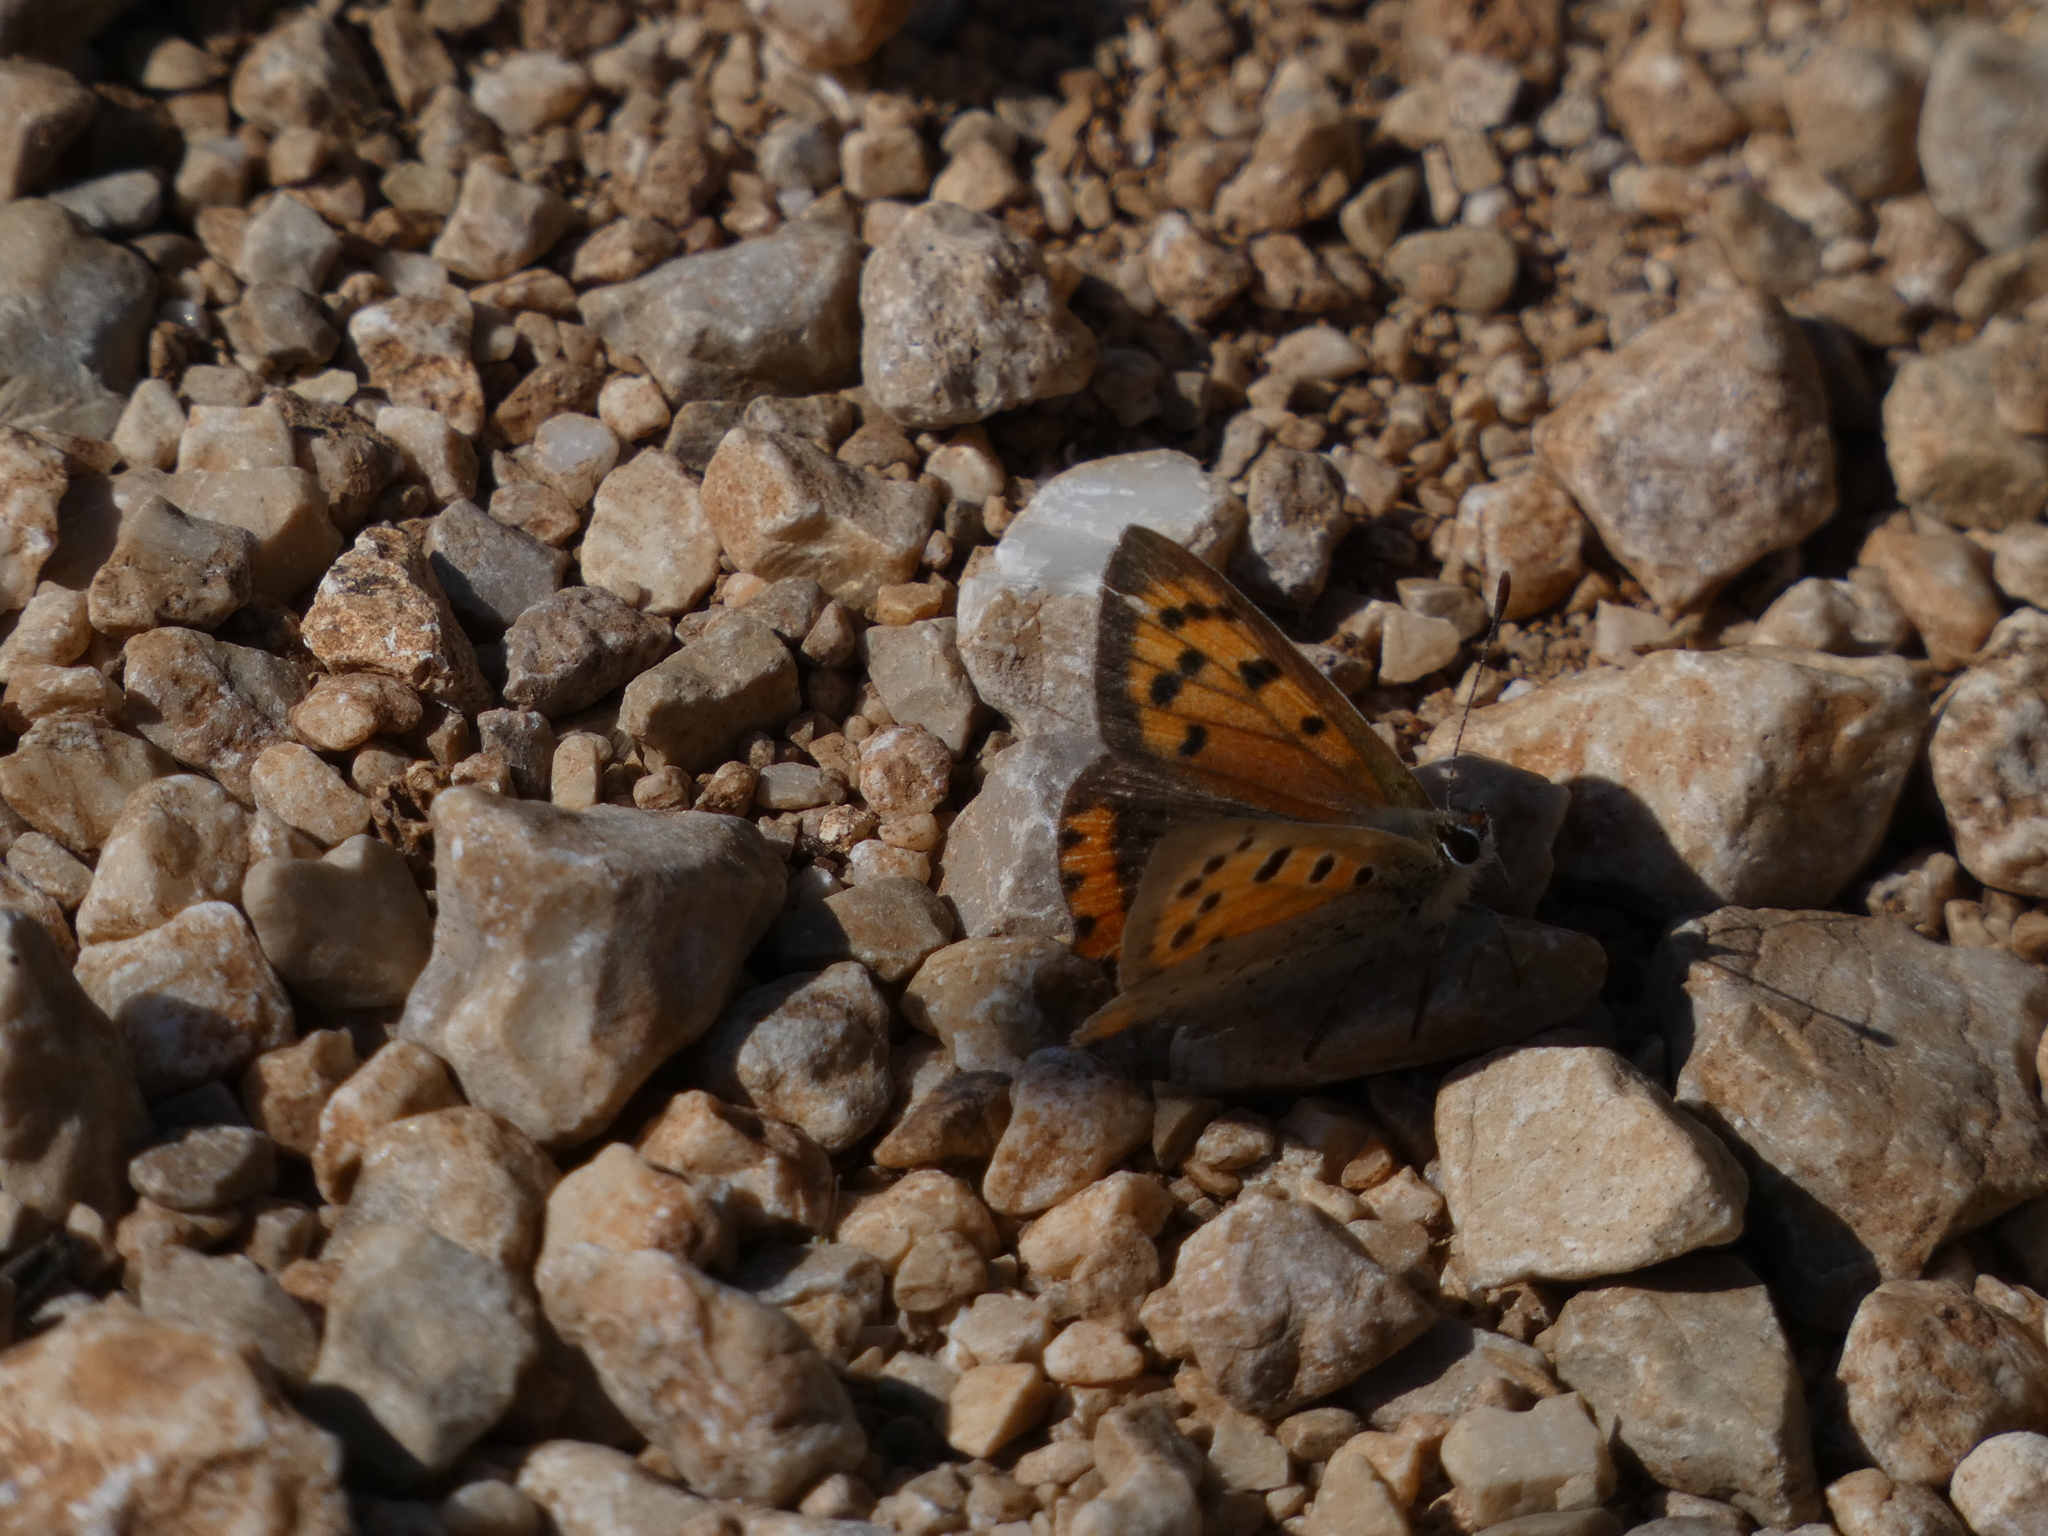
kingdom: Animalia
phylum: Arthropoda
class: Insecta
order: Lepidoptera
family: Lycaenidae
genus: Lycaena
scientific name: Lycaena phlaeas
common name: Small copper
